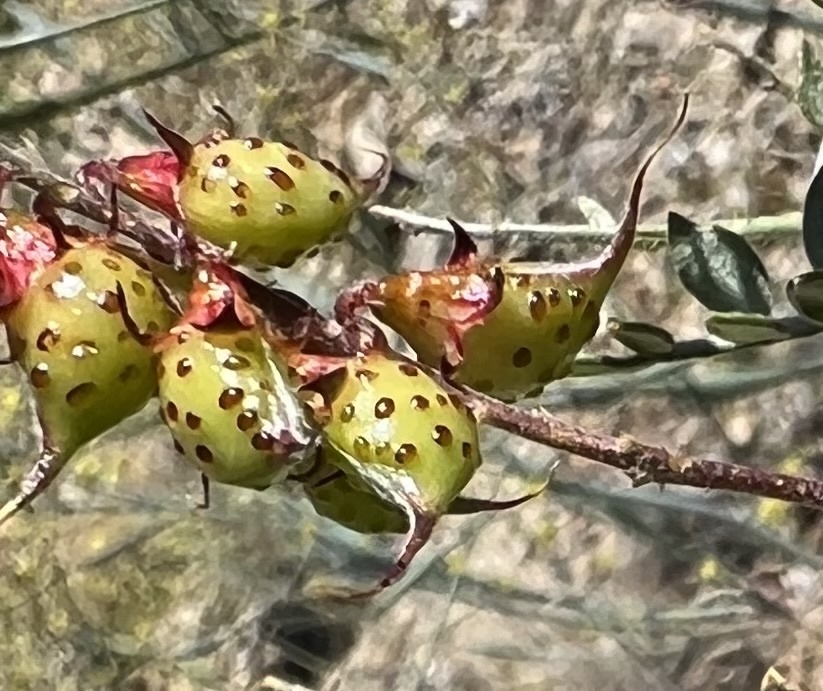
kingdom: Plantae
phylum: Tracheophyta
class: Magnoliopsida
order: Fabales
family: Fabaceae
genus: Psorothamnus
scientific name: Psorothamnus arborescens
